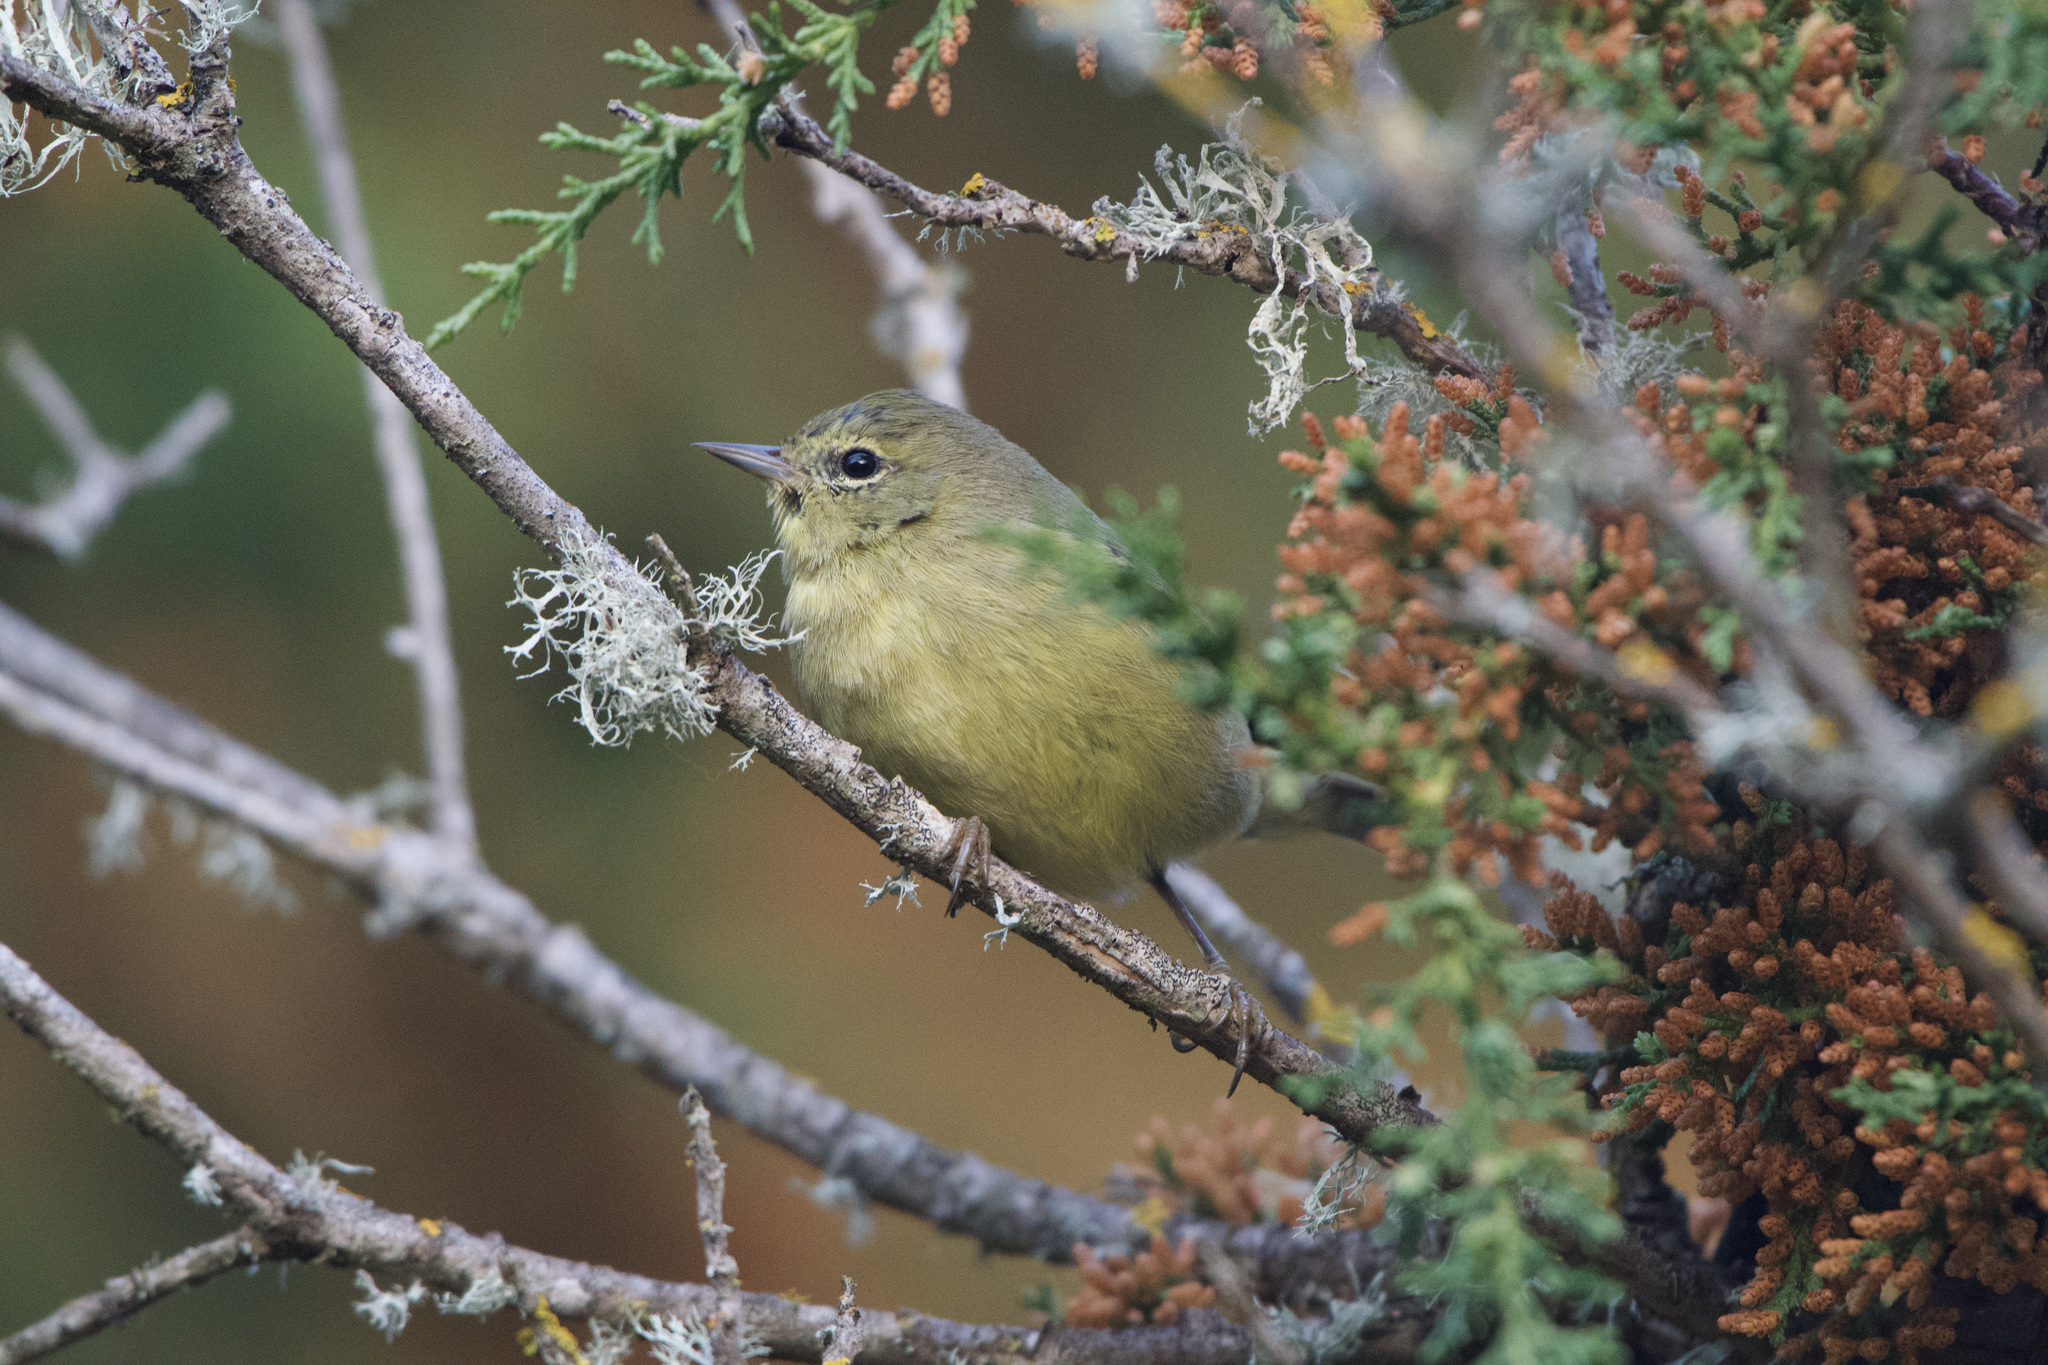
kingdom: Animalia
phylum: Chordata
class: Aves
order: Passeriformes
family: Parulidae
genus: Leiothlypis
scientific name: Leiothlypis celata
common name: Orange-crowned warbler
